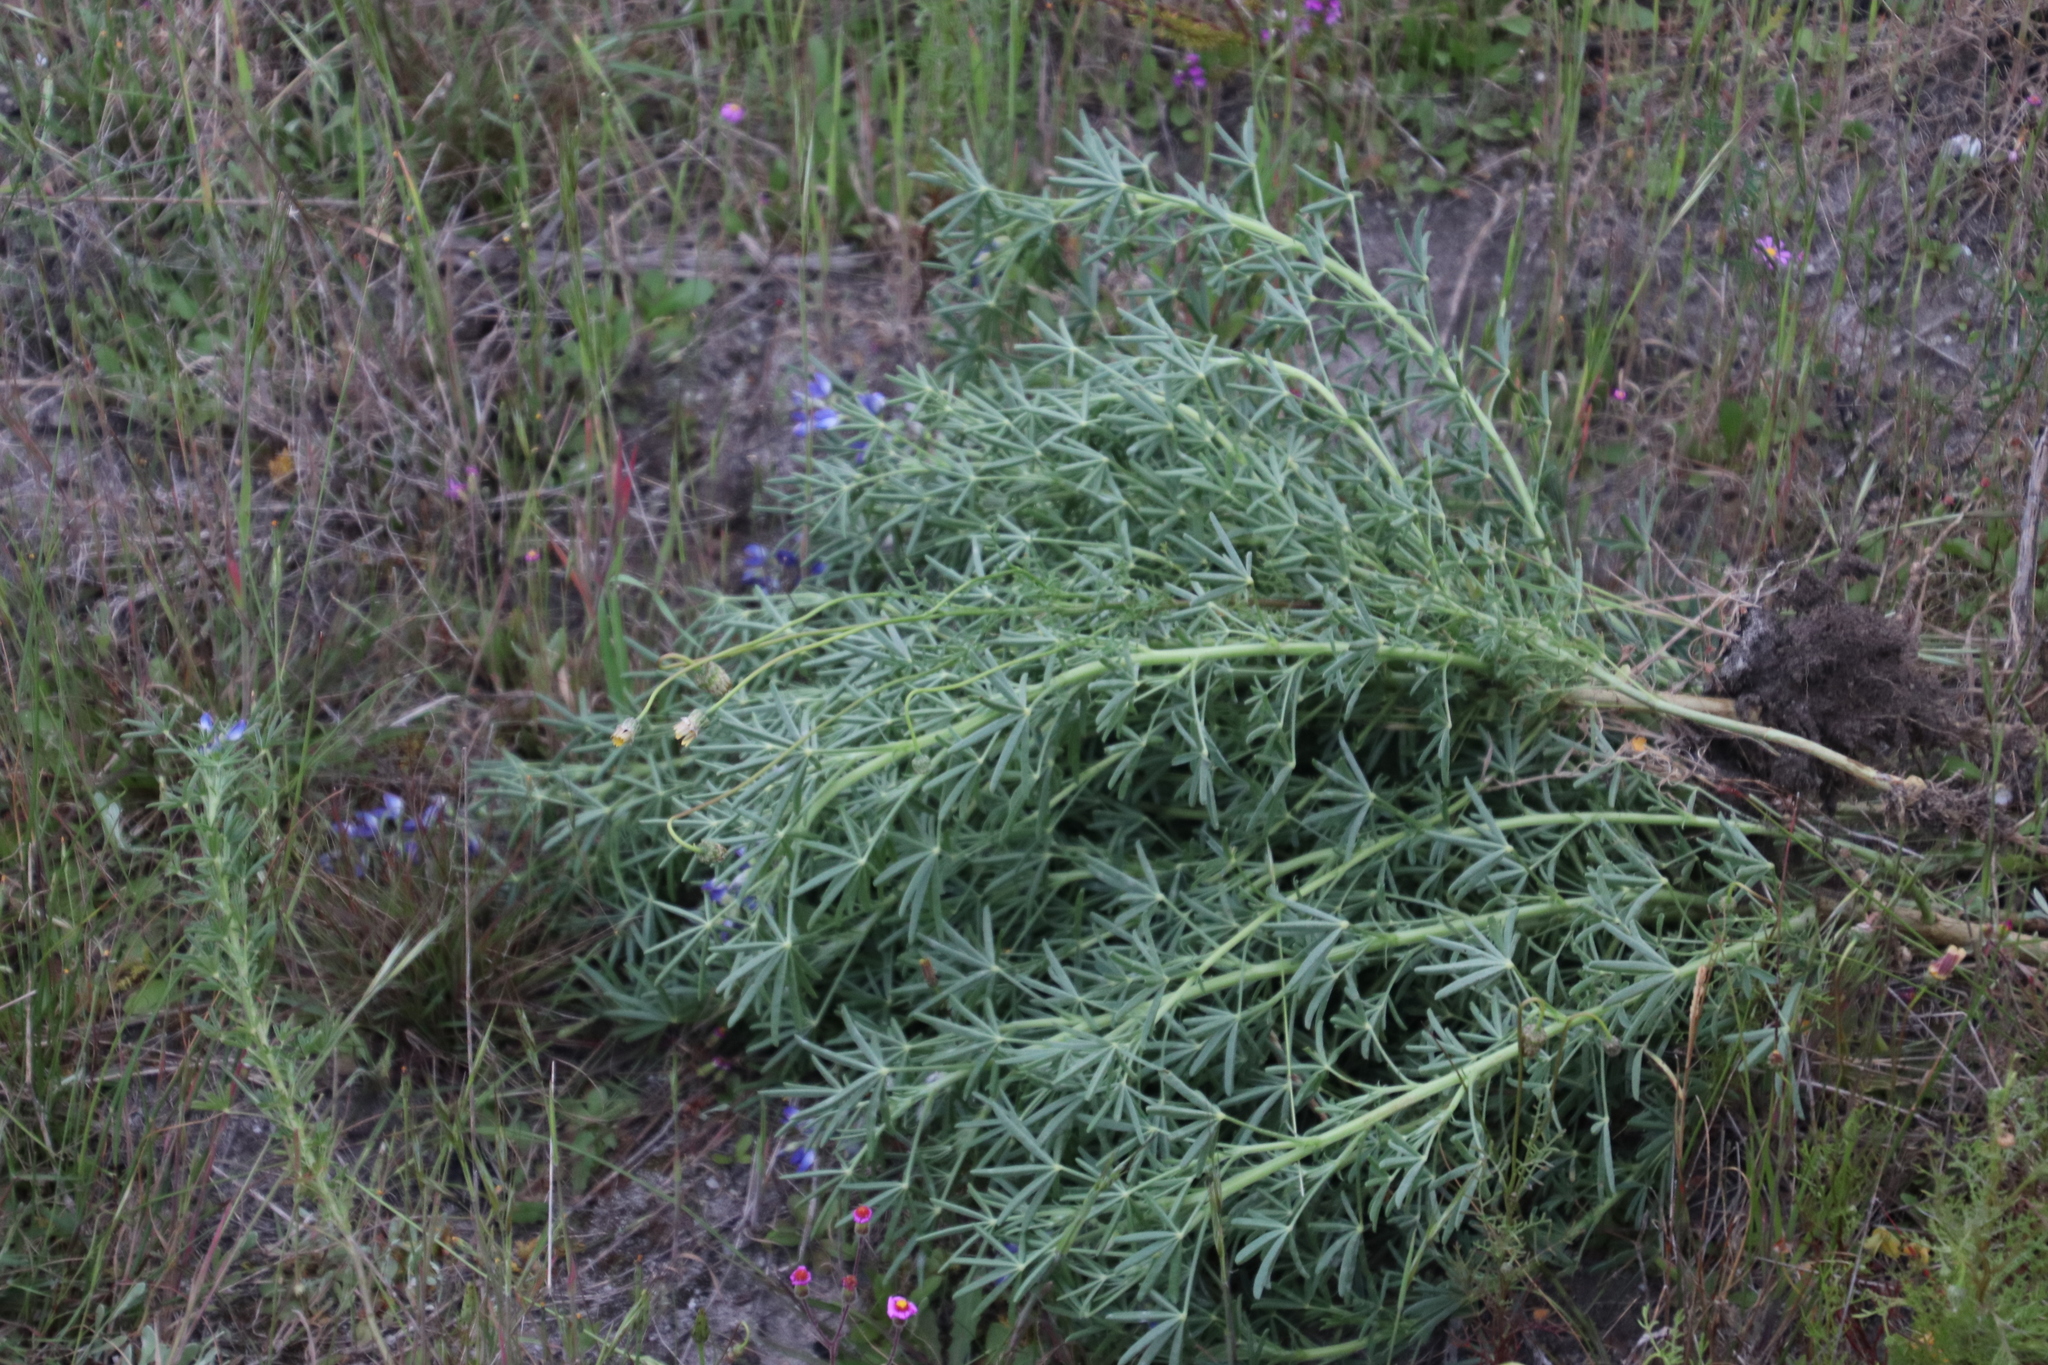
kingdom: Plantae
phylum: Tracheophyta
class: Magnoliopsida
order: Fabales
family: Fabaceae
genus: Lupinus
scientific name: Lupinus angustifolius
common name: Narrow-leaved lupin
